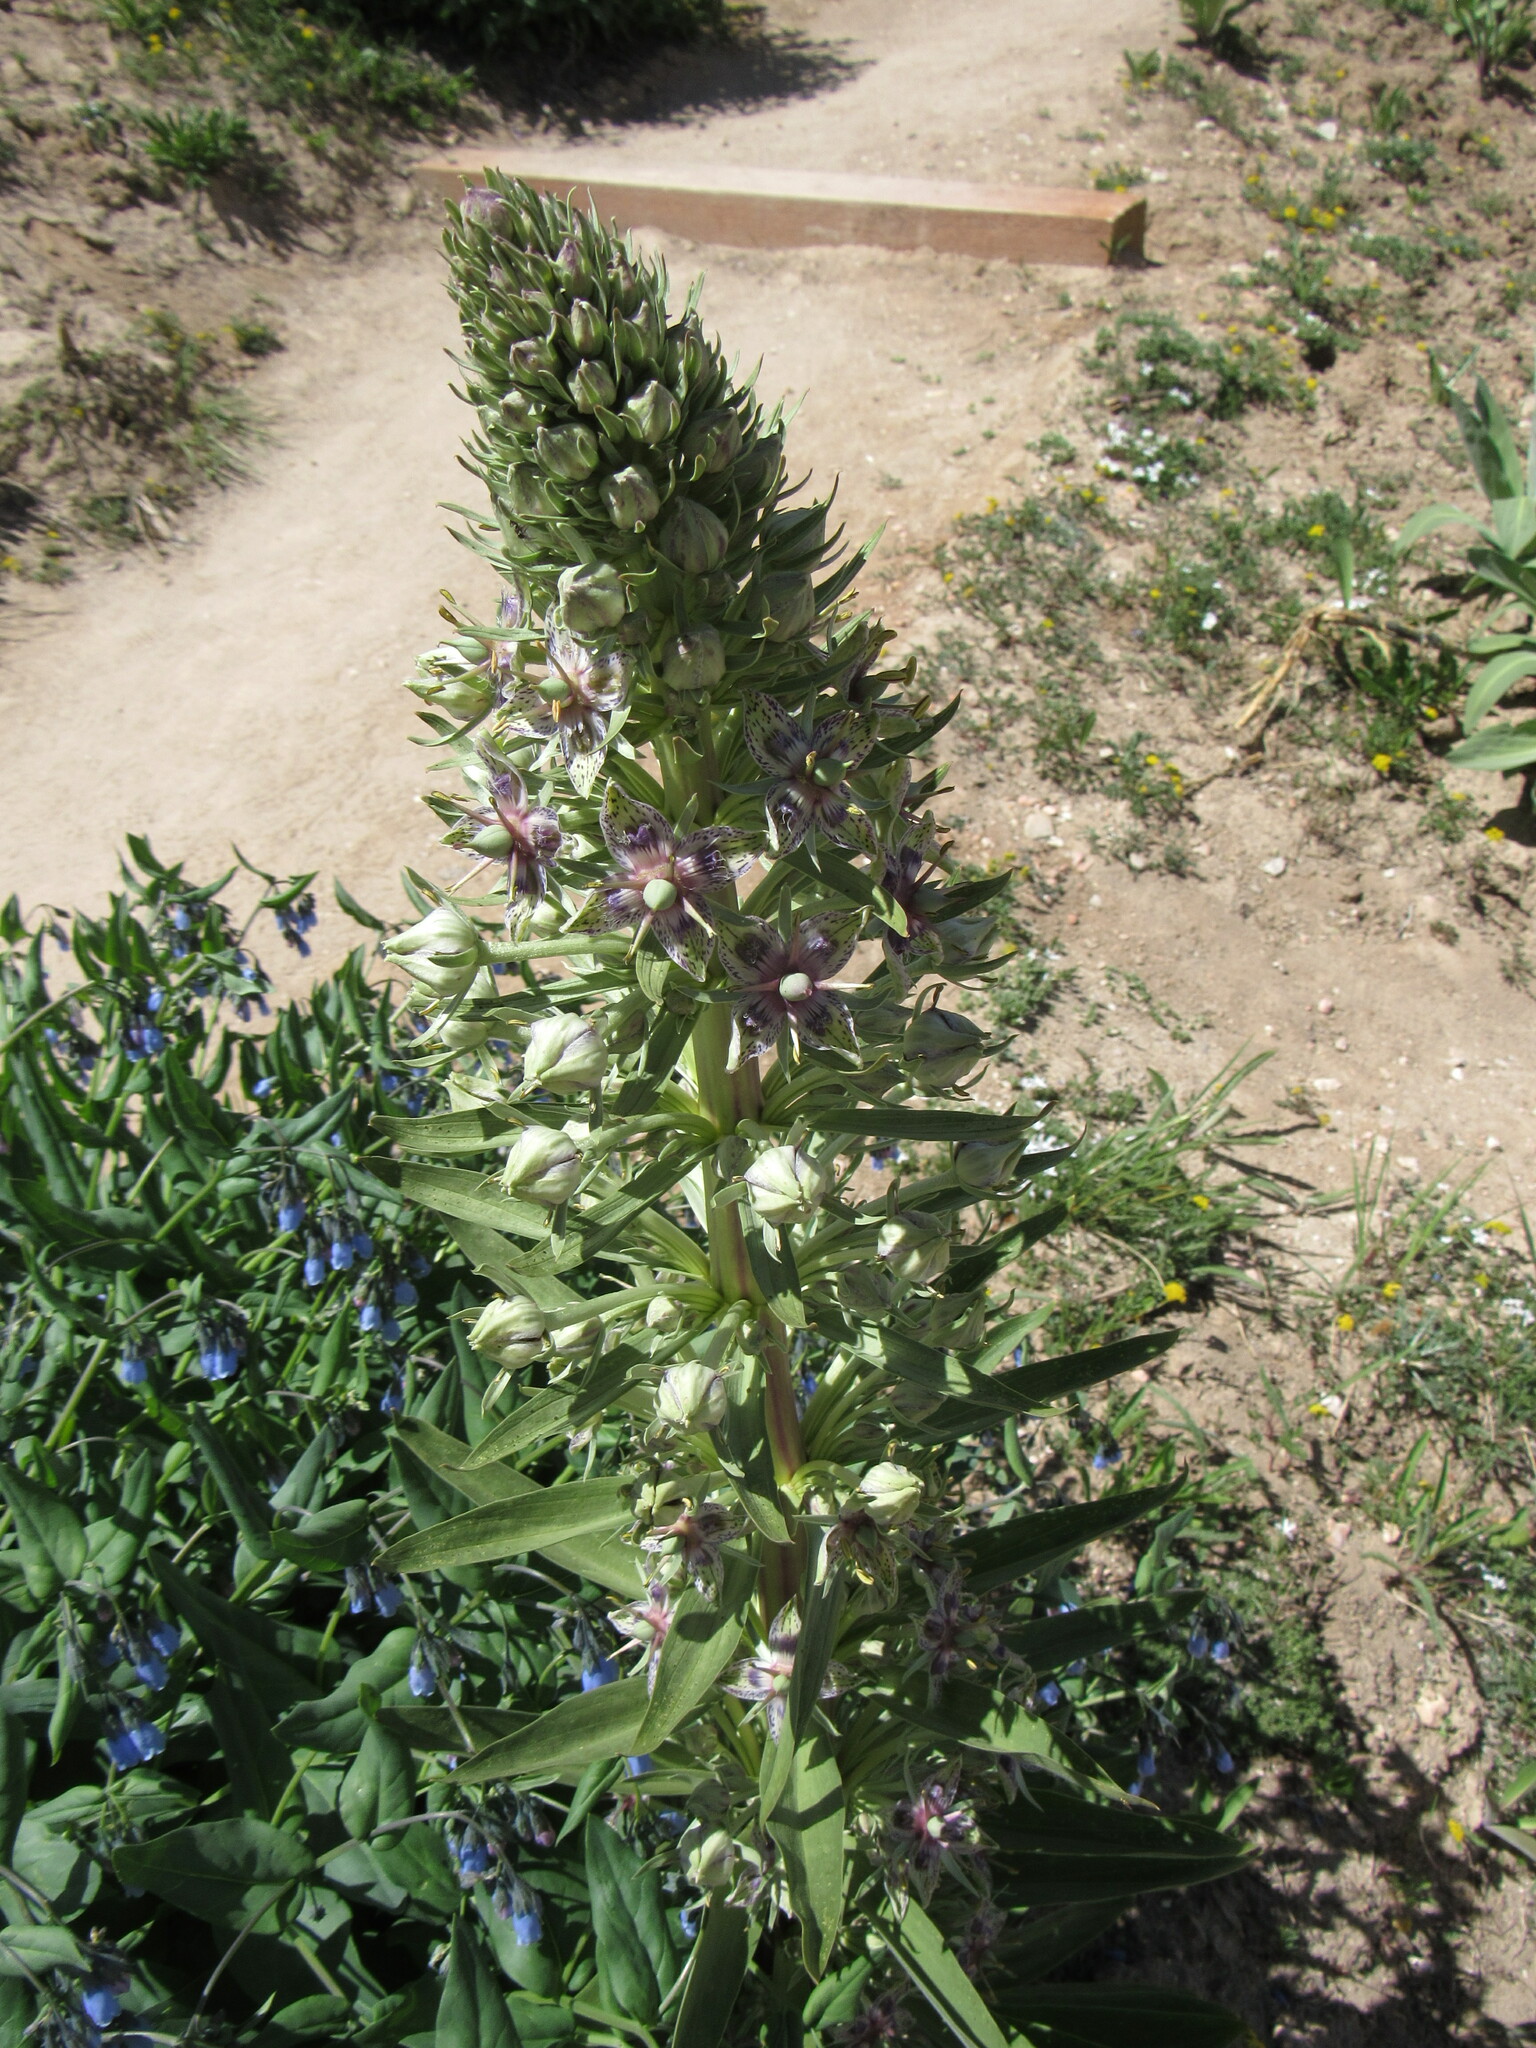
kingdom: Plantae
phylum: Tracheophyta
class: Magnoliopsida
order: Gentianales
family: Gentianaceae
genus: Frasera
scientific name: Frasera speciosa
